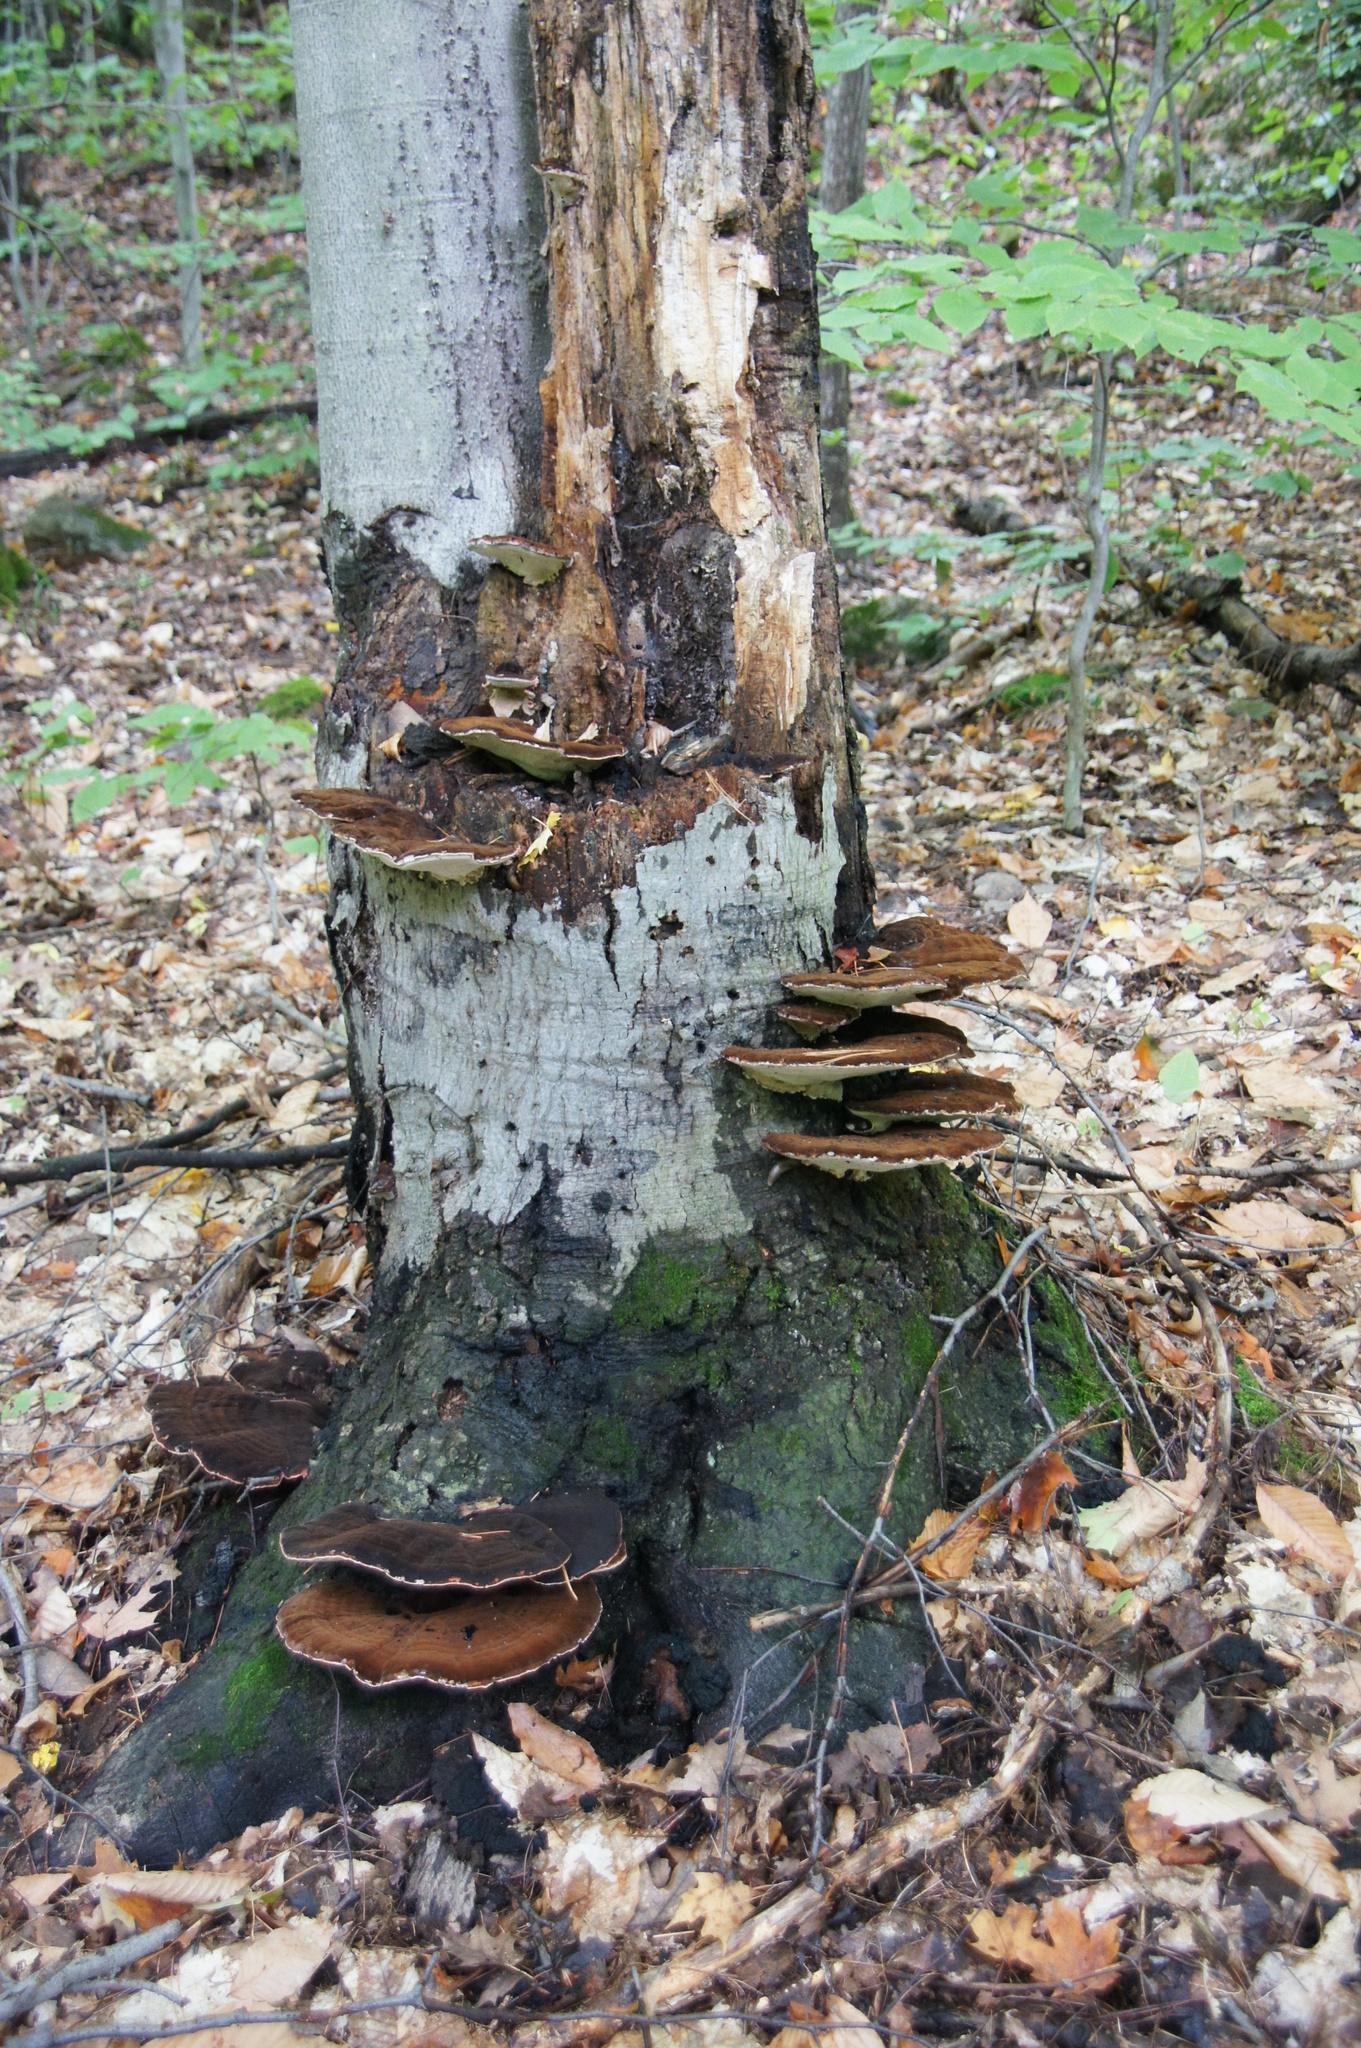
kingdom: Fungi
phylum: Basidiomycota
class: Agaricomycetes
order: Polyporales
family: Ischnodermataceae
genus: Ischnoderma
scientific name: Ischnoderma resinosum
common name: Resinous polypore
